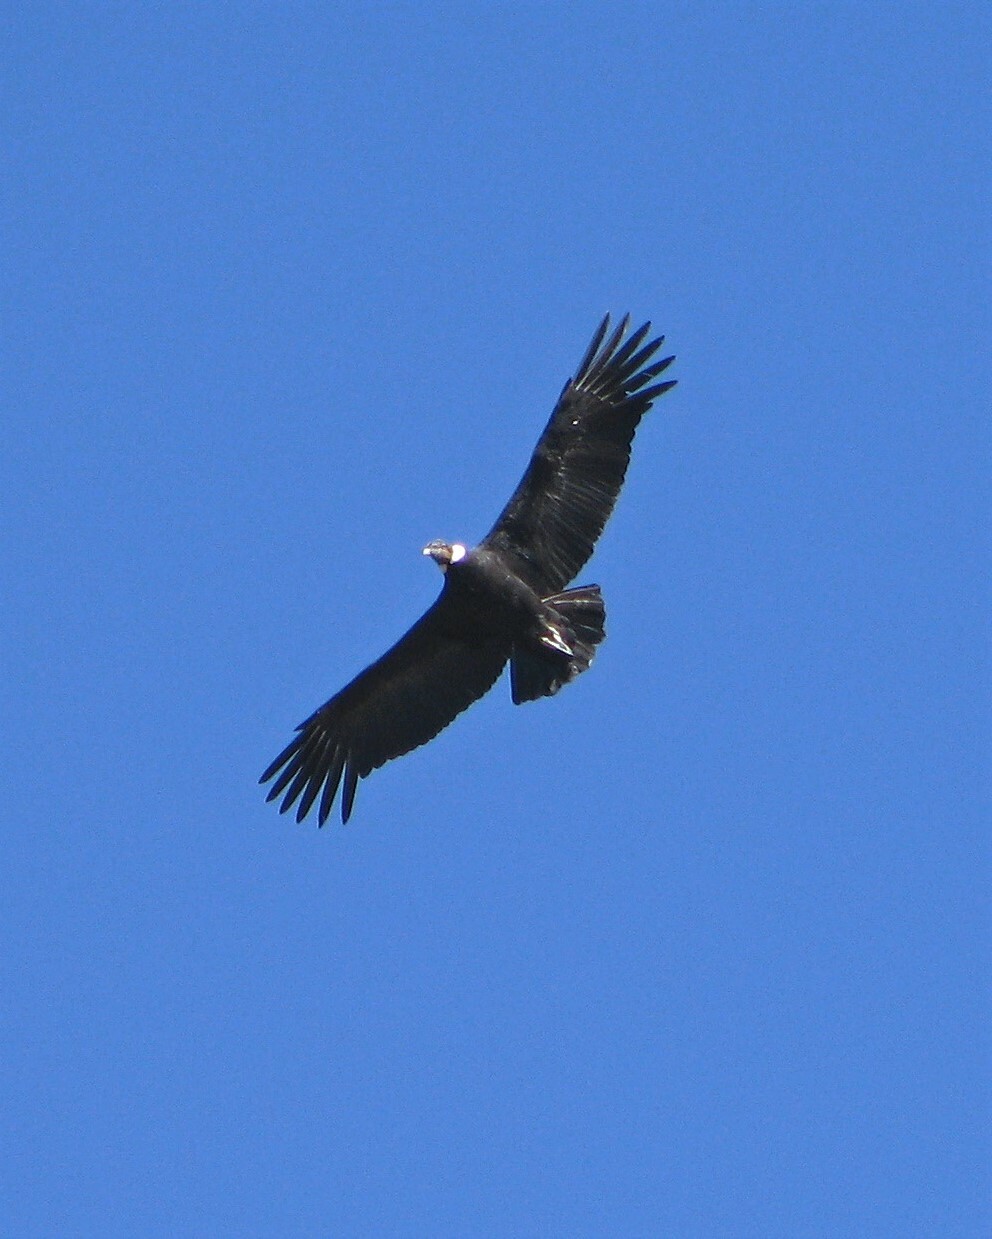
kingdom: Animalia
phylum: Chordata
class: Aves
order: Accipitriformes
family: Cathartidae
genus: Vultur
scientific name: Vultur gryphus
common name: Andean condor
